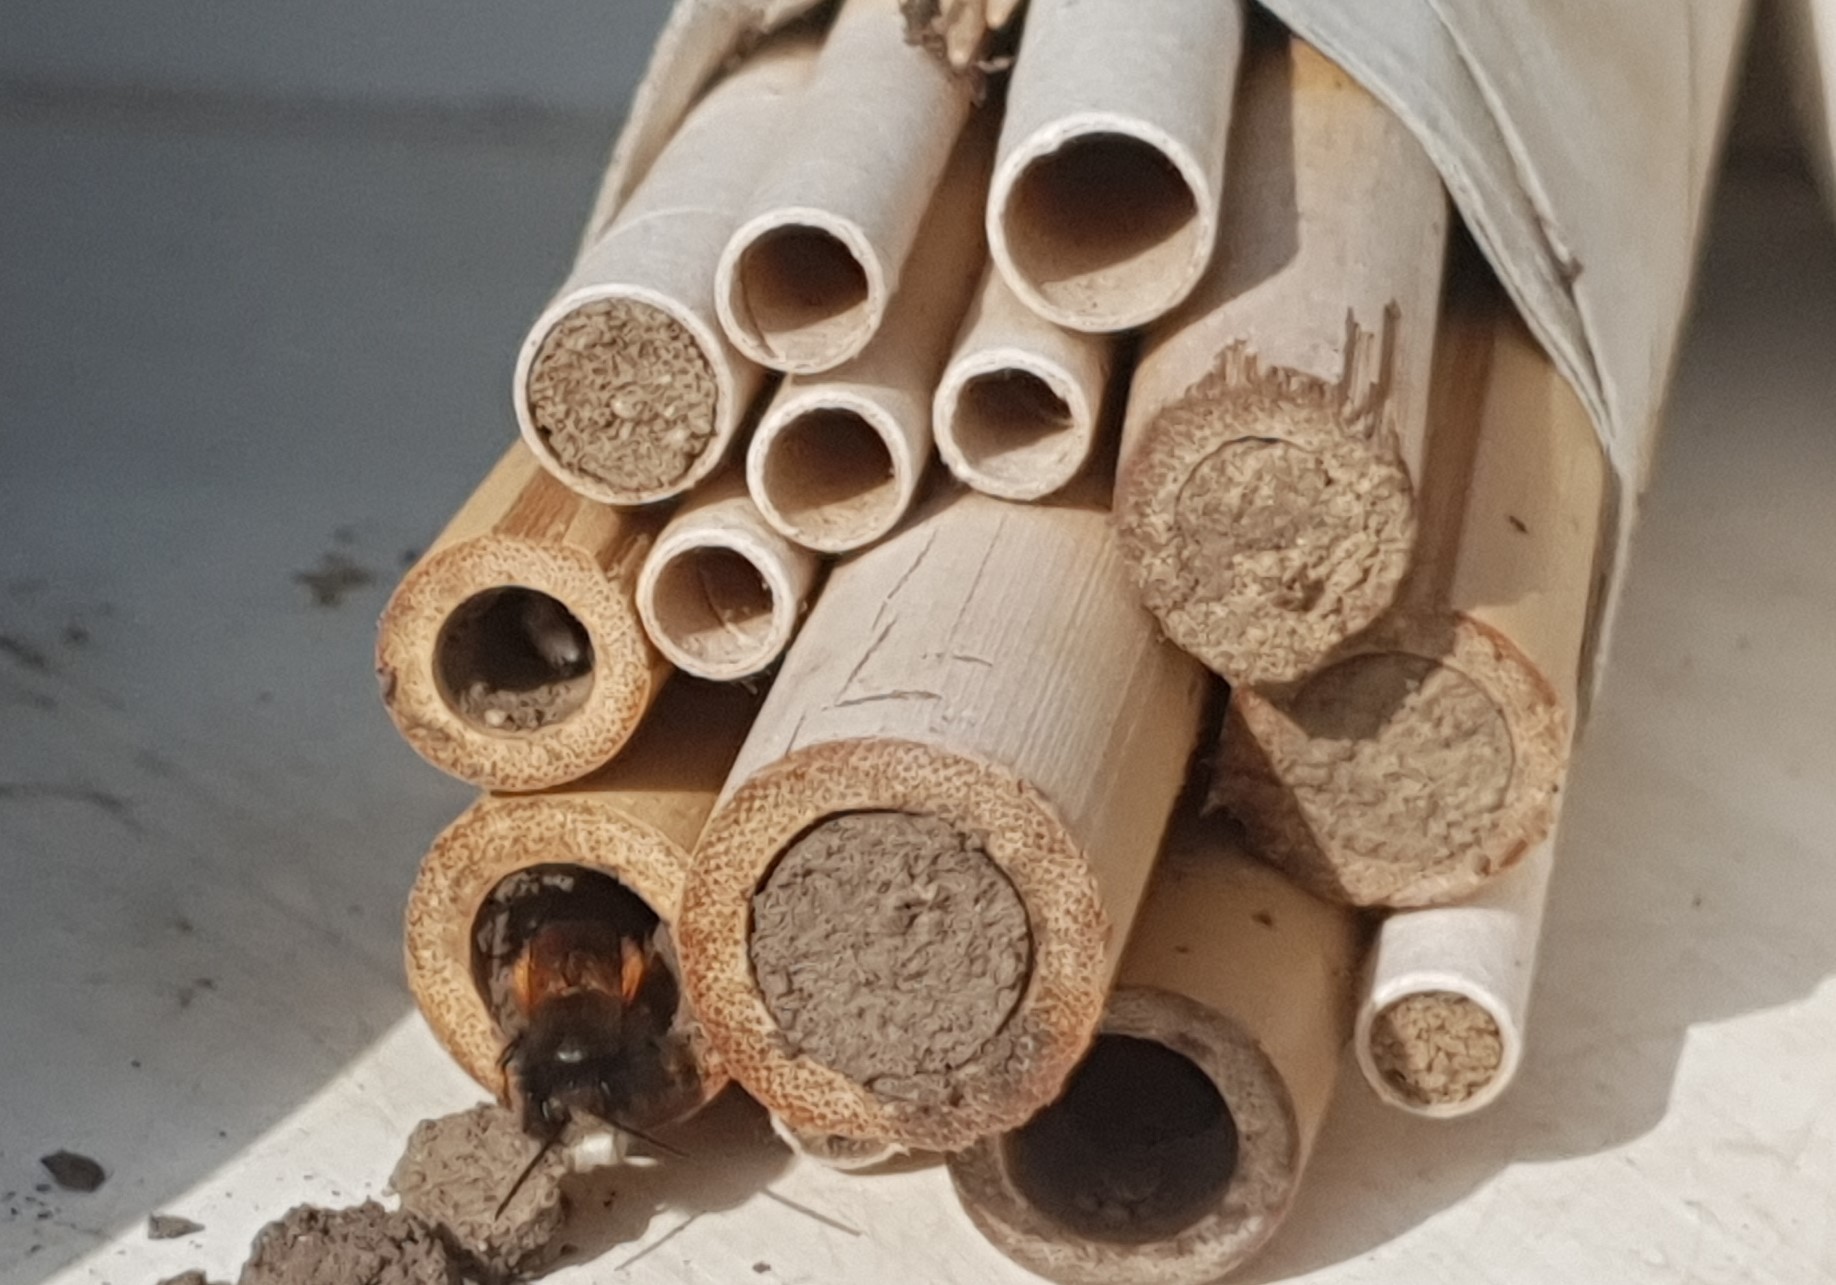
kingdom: Animalia
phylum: Arthropoda
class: Insecta
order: Hymenoptera
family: Megachilidae
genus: Osmia
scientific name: Osmia cornuta
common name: Mason bee
